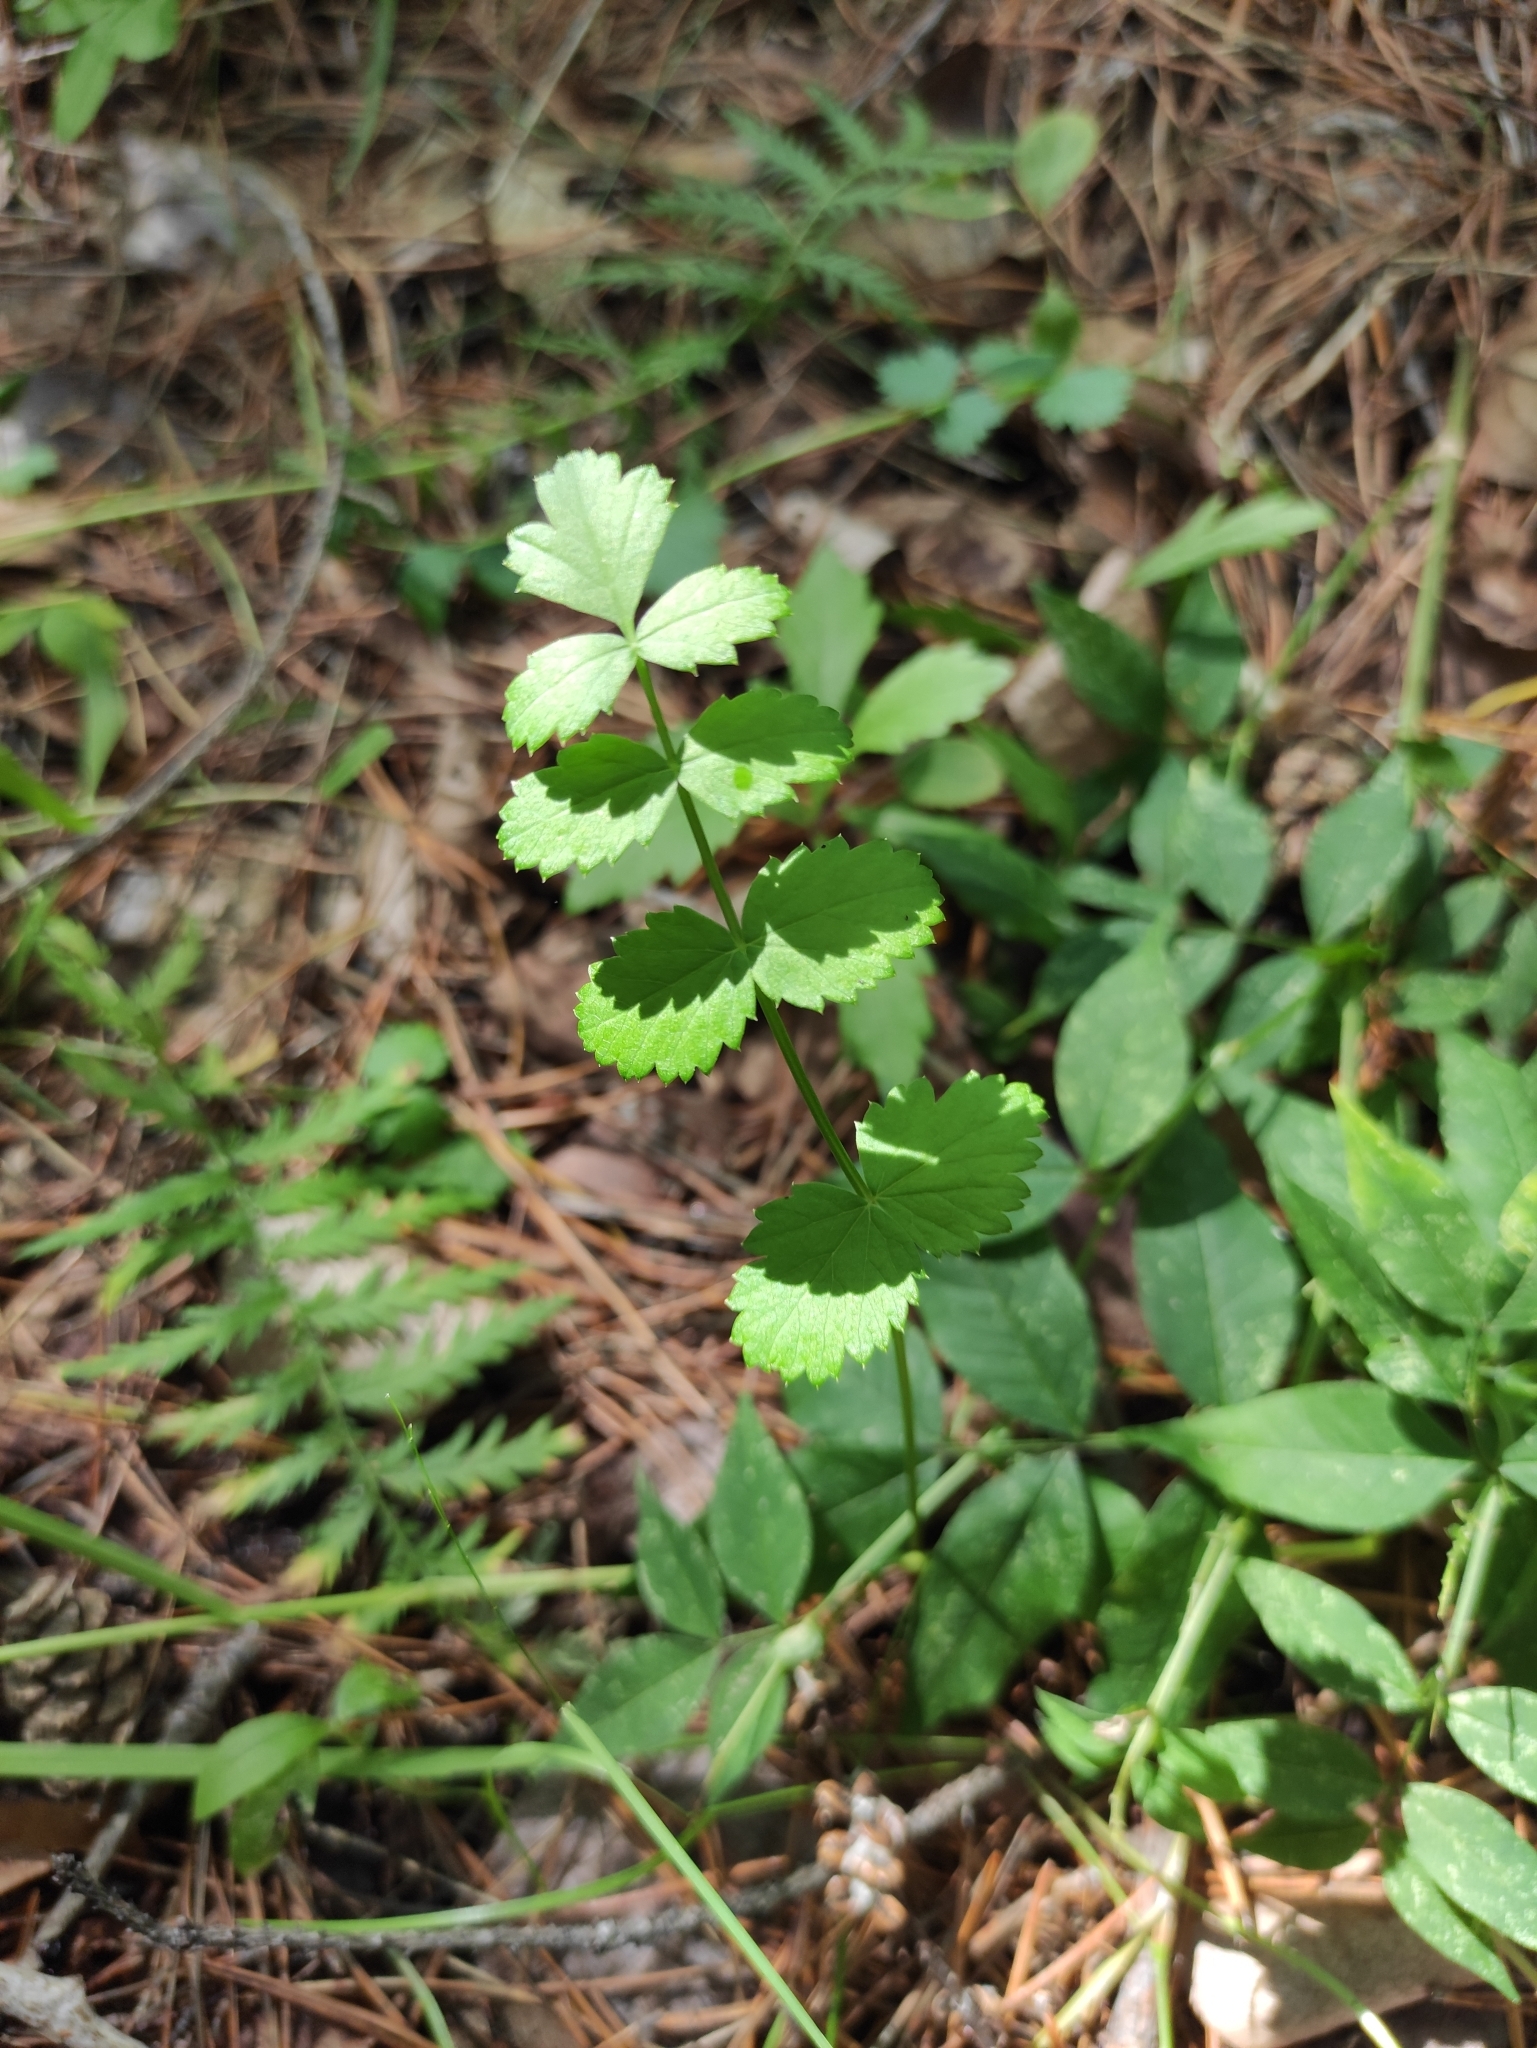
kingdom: Plantae
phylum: Tracheophyta
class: Magnoliopsida
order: Apiales
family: Apiaceae
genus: Pimpinella
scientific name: Pimpinella saxifraga
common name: Burnet-saxifrage
